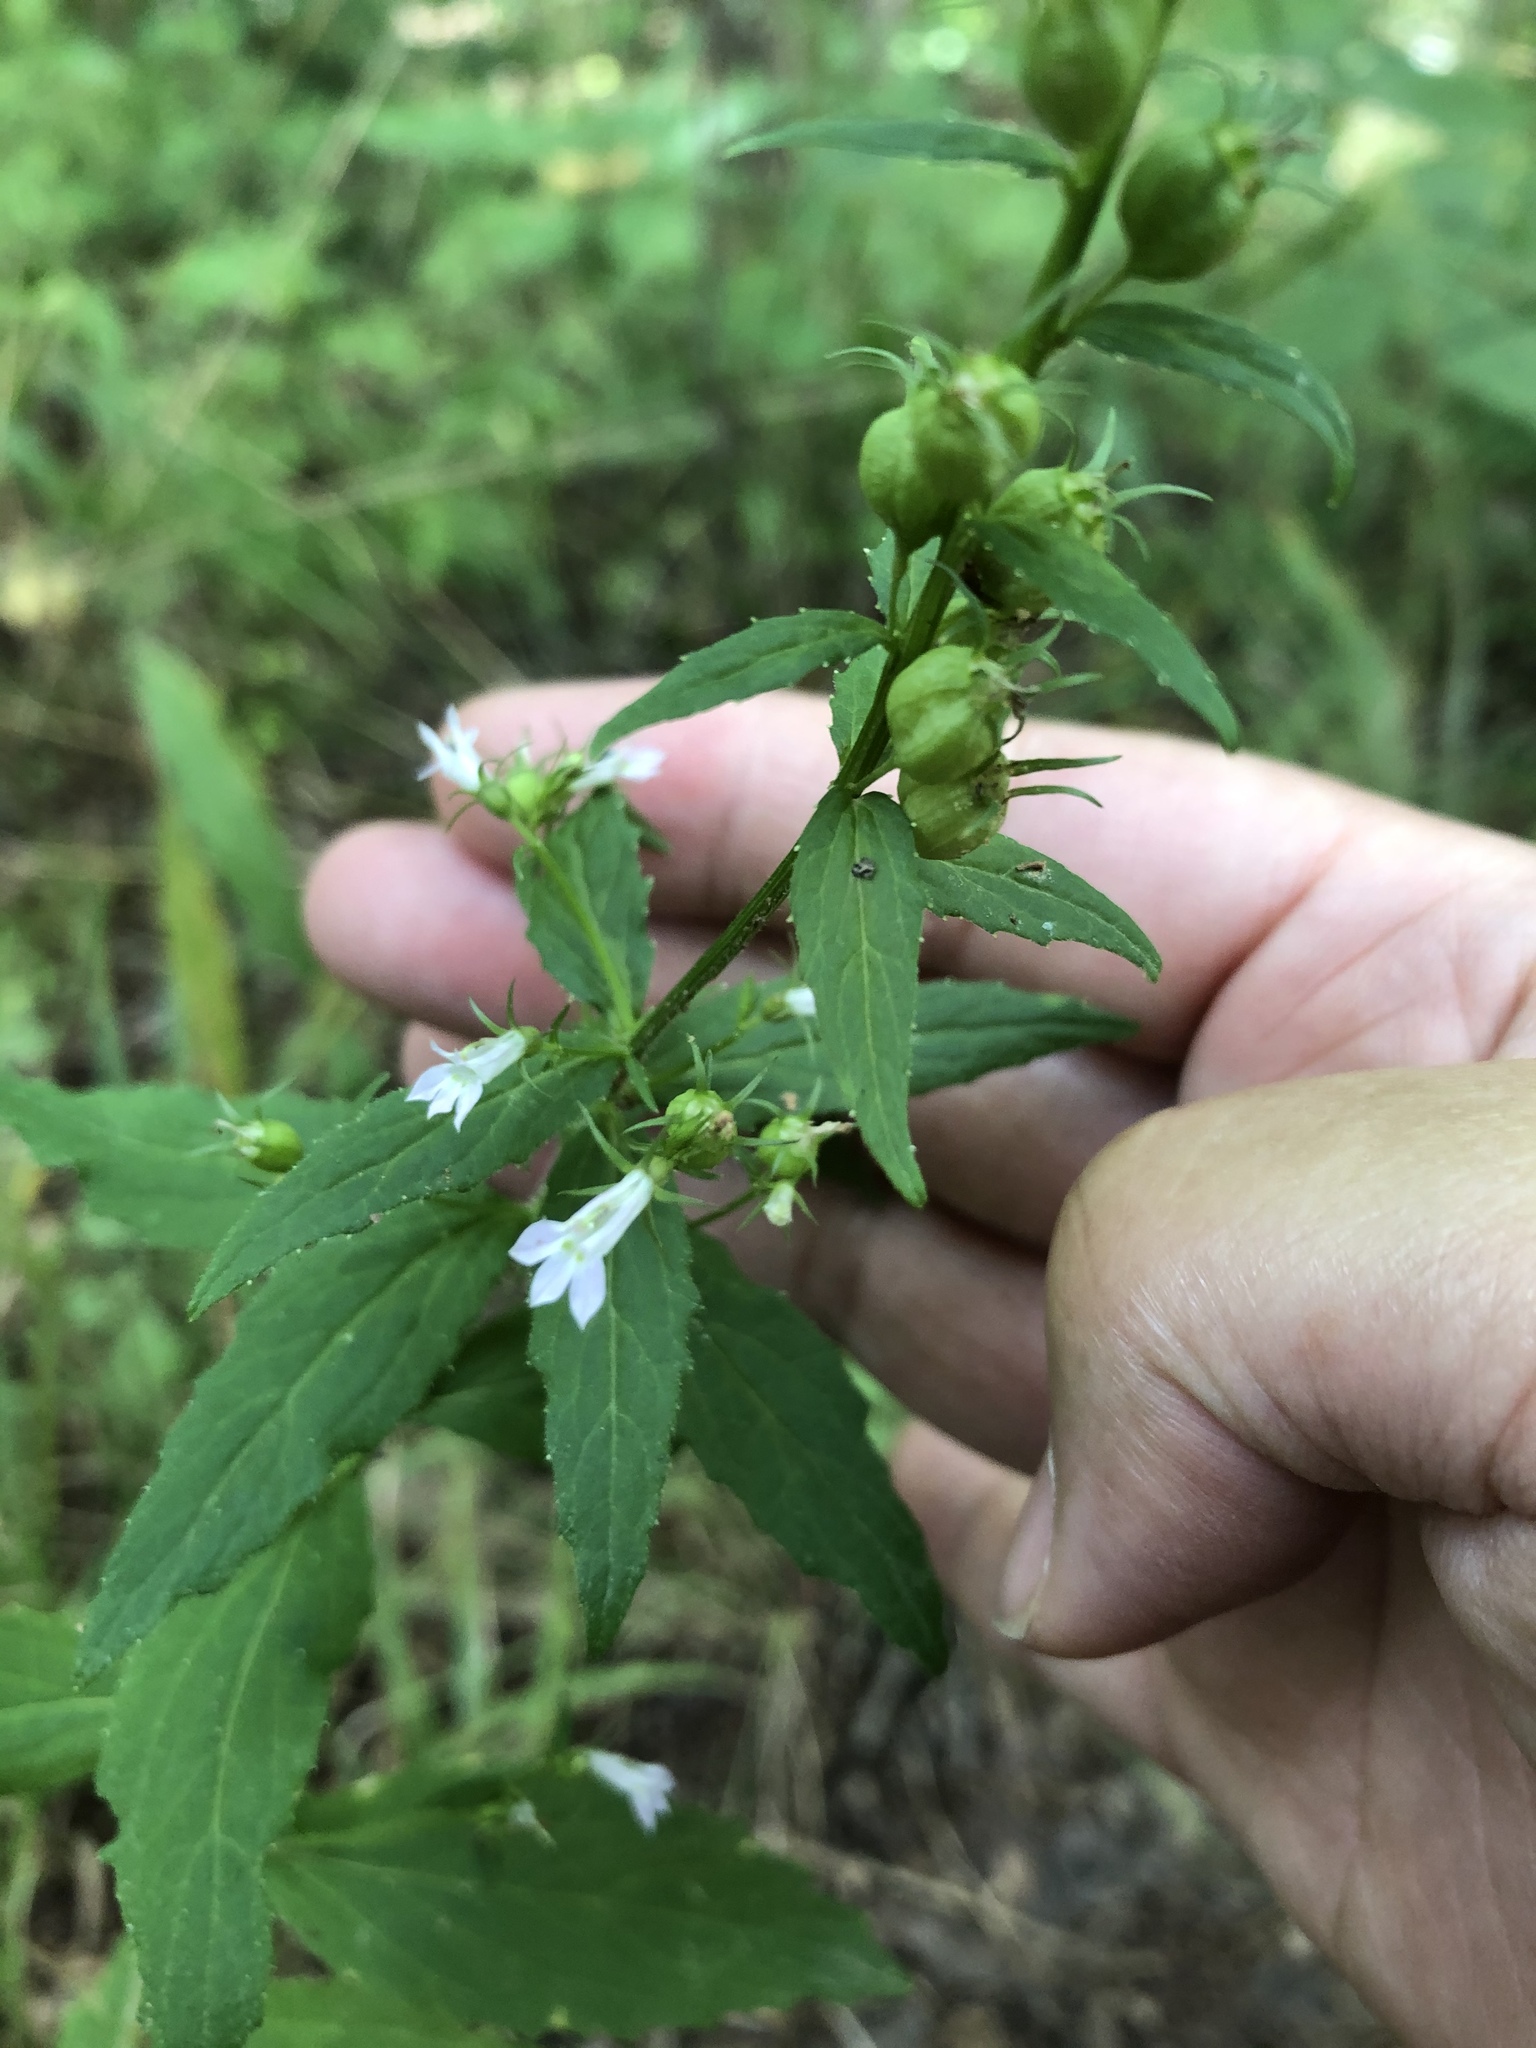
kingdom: Plantae
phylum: Tracheophyta
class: Magnoliopsida
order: Asterales
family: Campanulaceae
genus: Lobelia
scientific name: Lobelia inflata
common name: Indian tobacco
